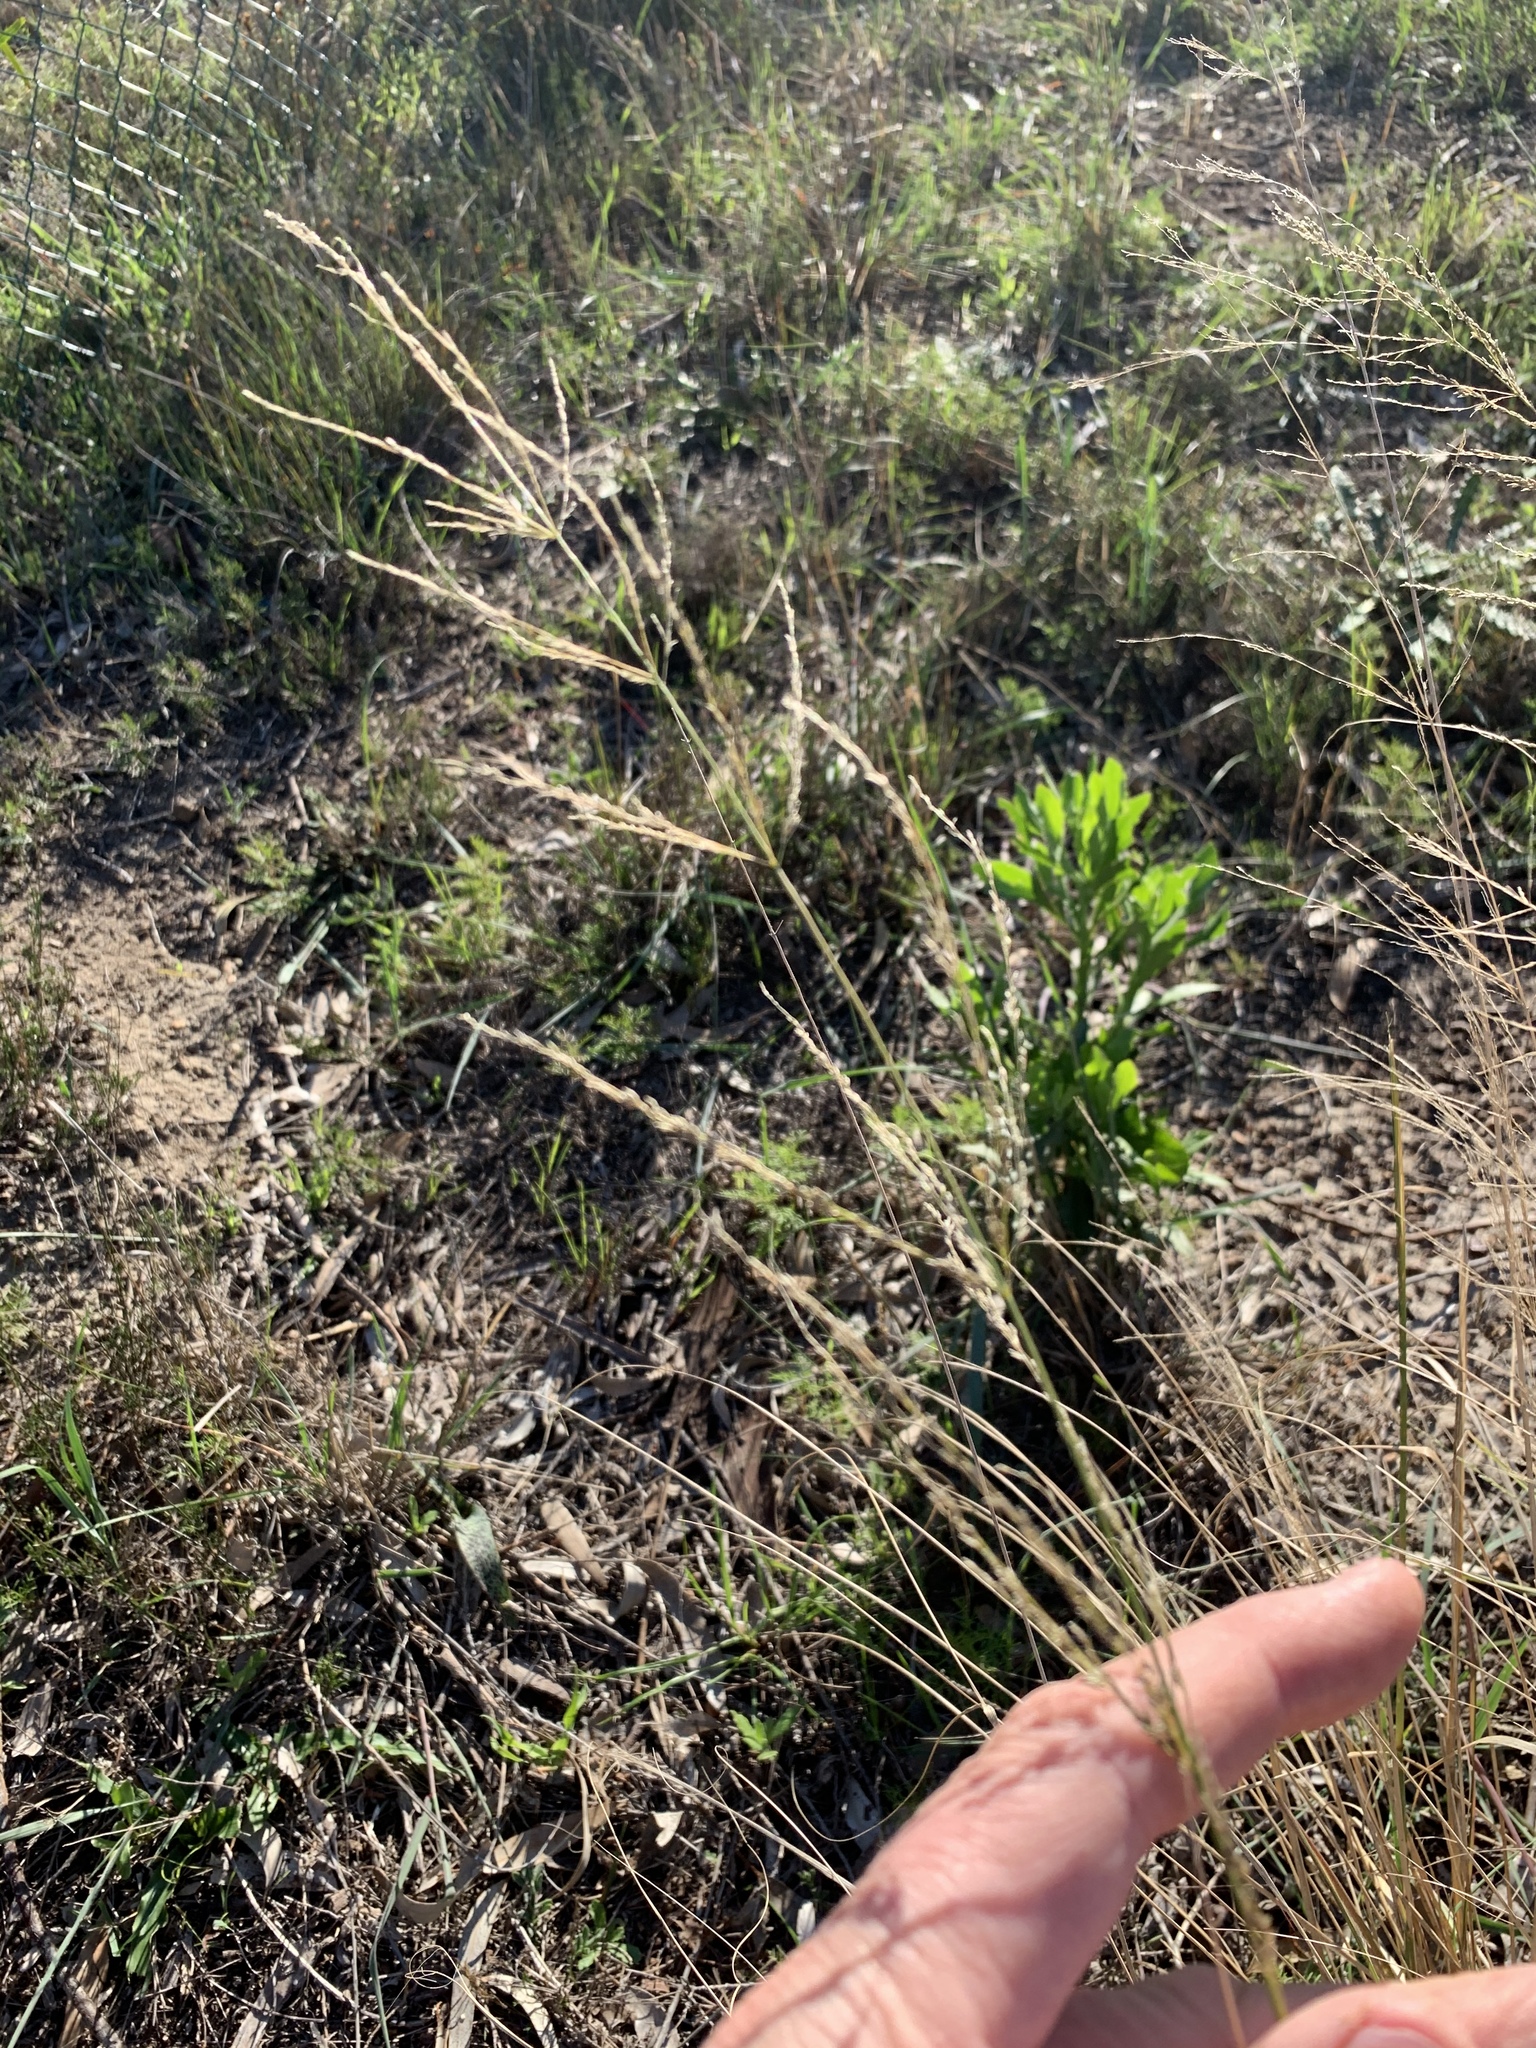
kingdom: Plantae
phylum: Tracheophyta
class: Liliopsida
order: Poales
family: Poaceae
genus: Eragrostis
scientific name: Eragrostis curvula
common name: African love-grass
